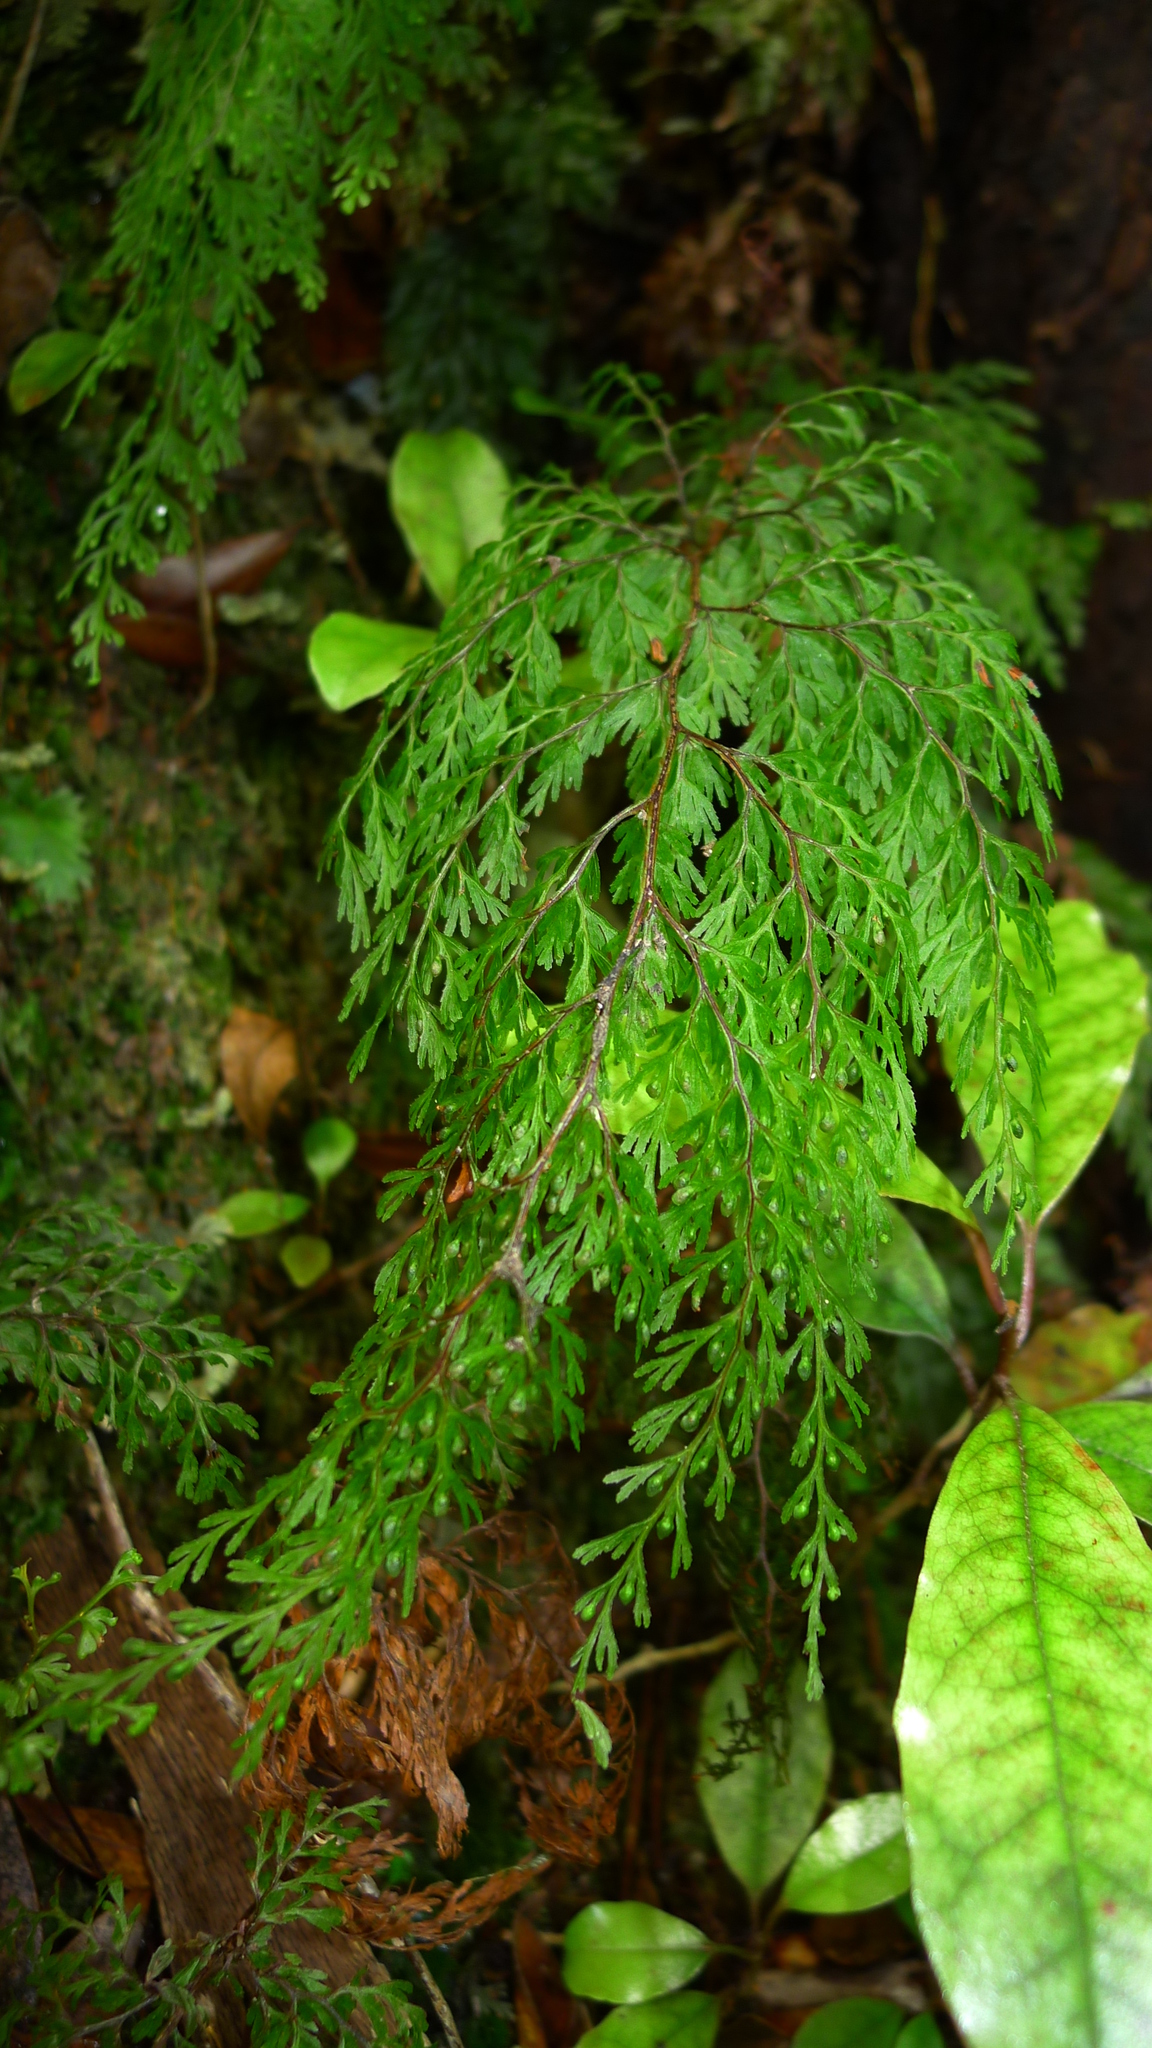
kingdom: Plantae
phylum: Tracheophyta
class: Polypodiopsida
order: Hymenophyllales
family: Hymenophyllaceae
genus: Hymenophyllum
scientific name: Hymenophyllum bivalve
